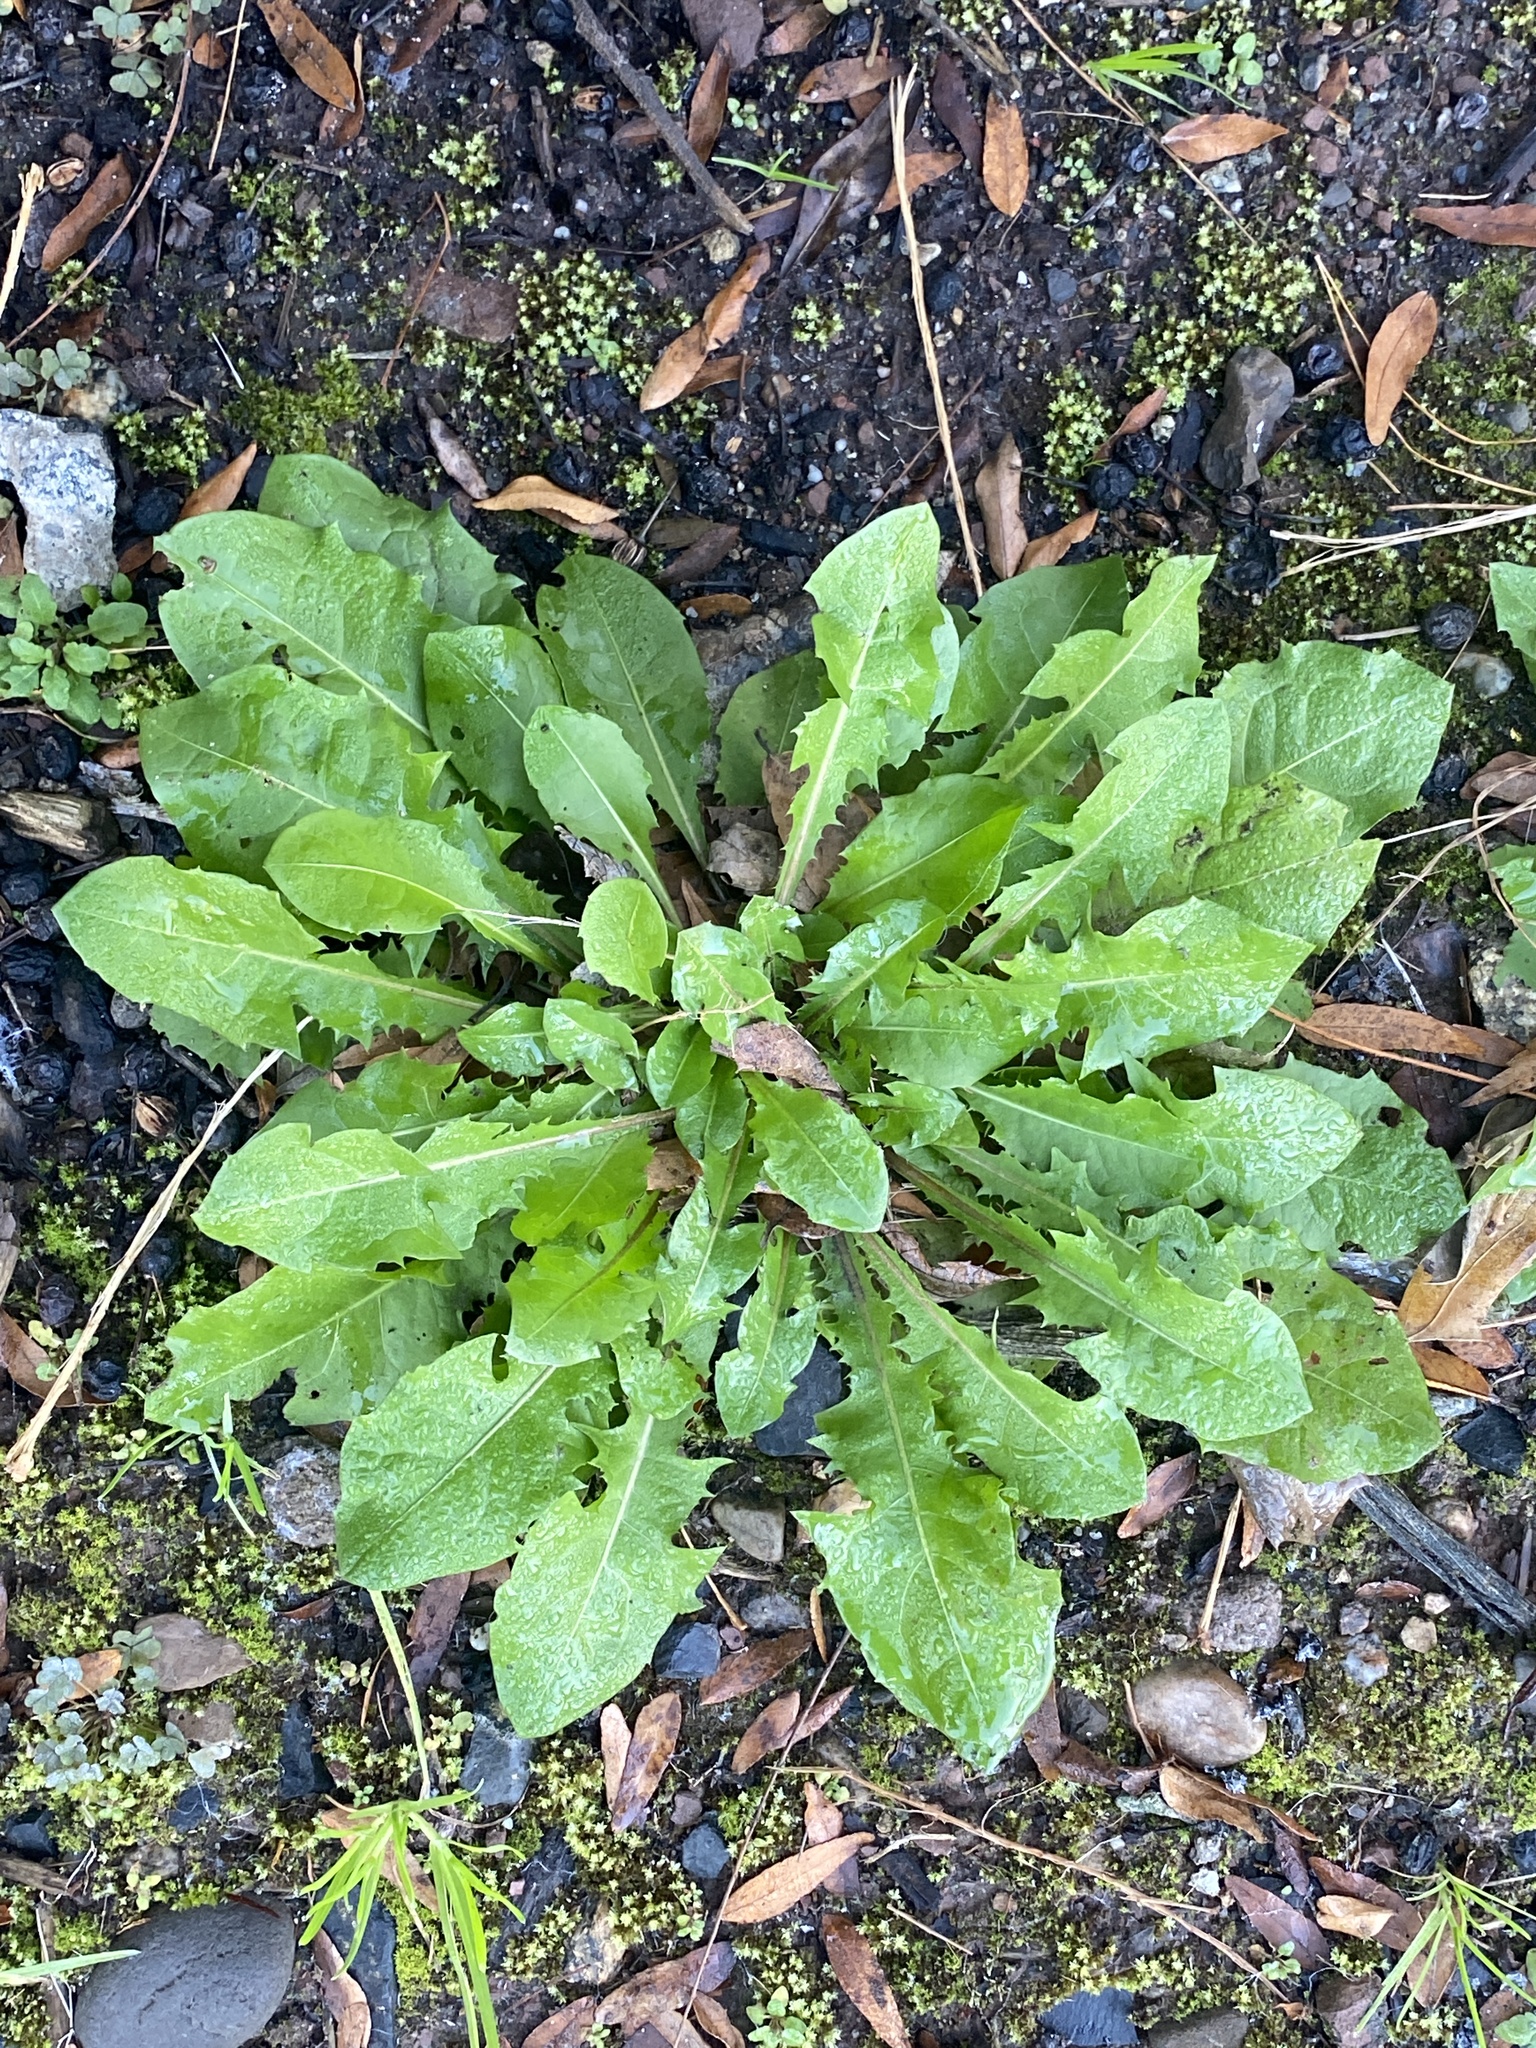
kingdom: Plantae
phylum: Tracheophyta
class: Magnoliopsida
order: Asterales
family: Asteraceae
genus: Taraxacum
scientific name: Taraxacum officinale
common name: Common dandelion
